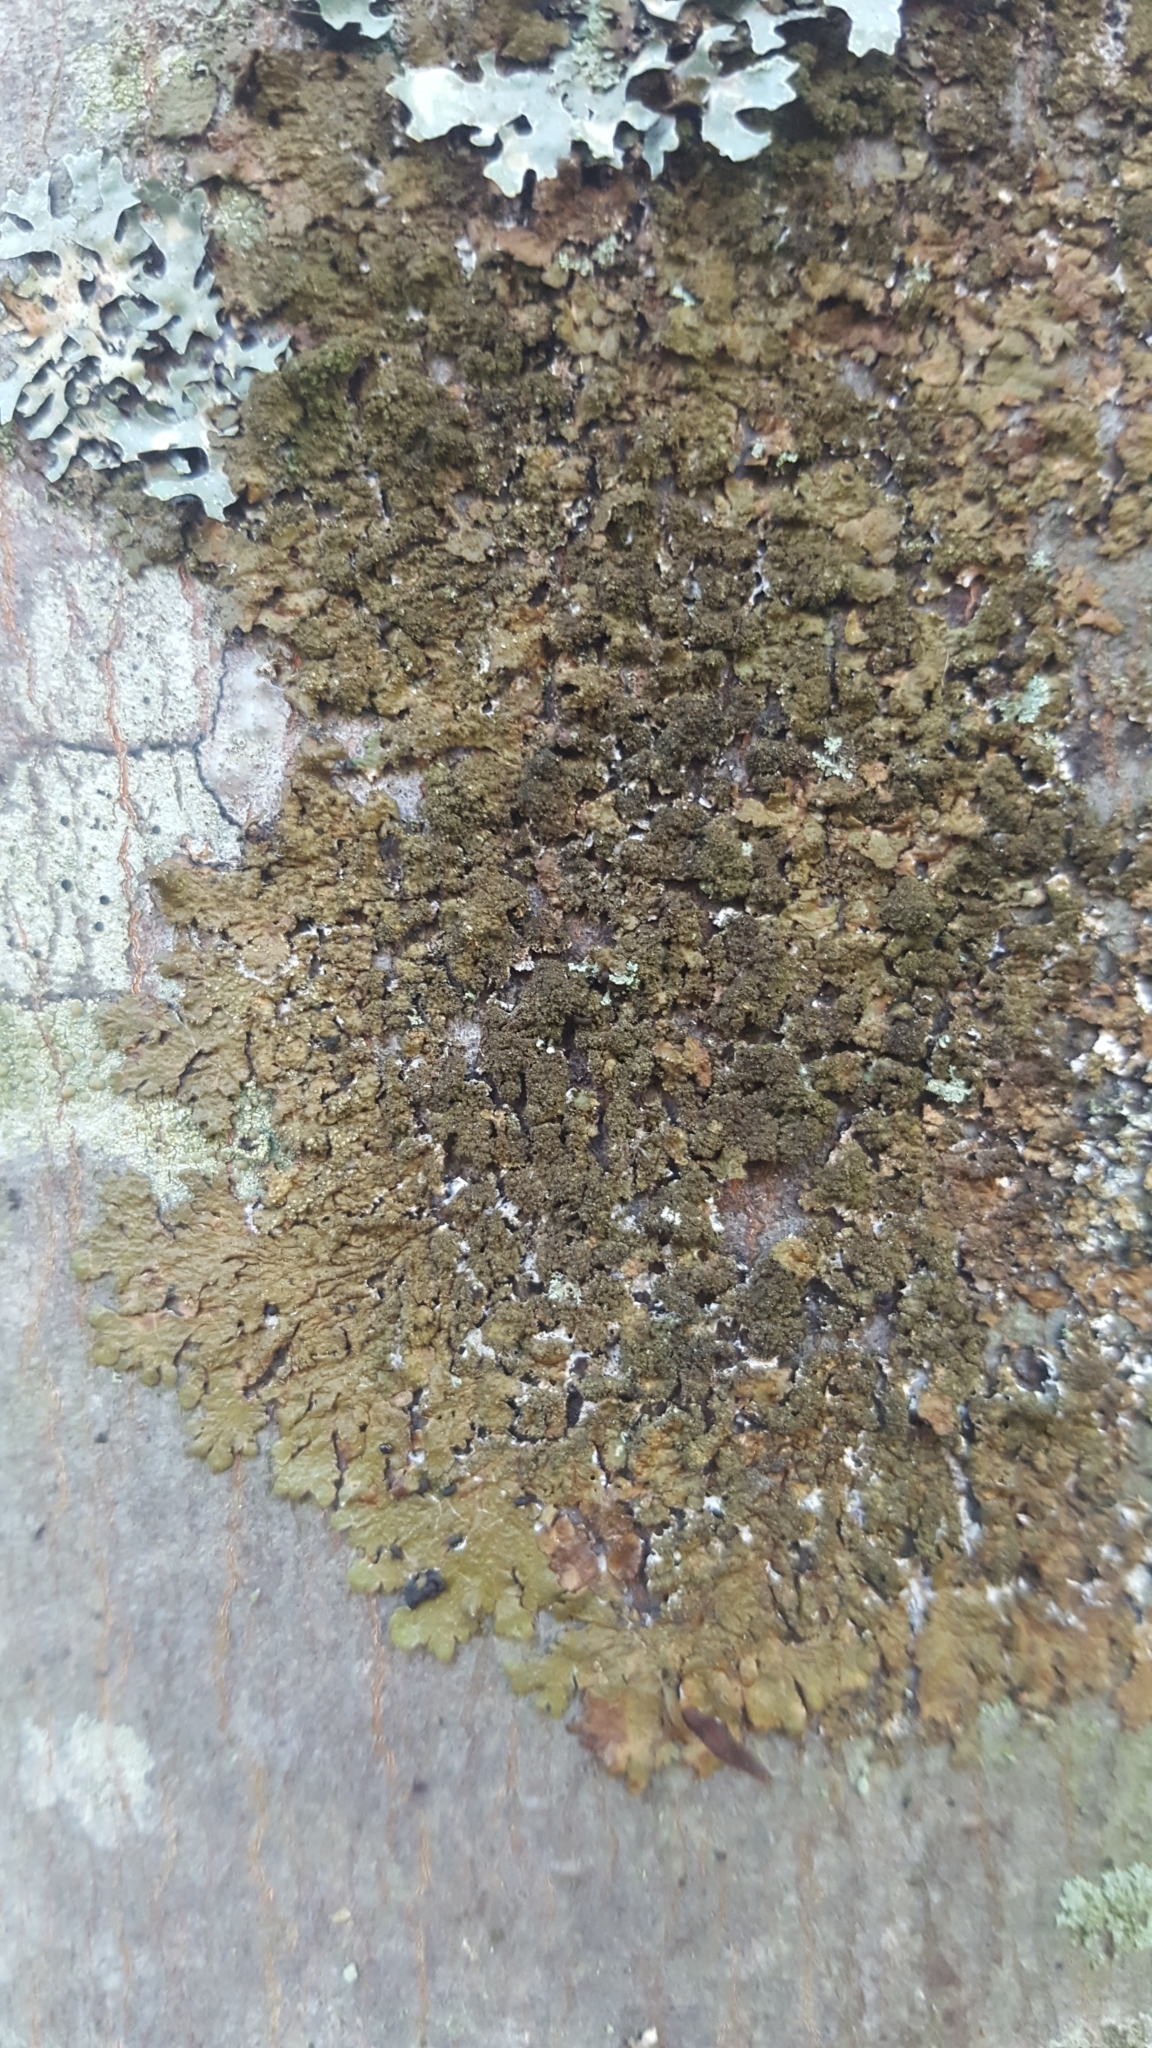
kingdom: Fungi
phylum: Ascomycota
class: Lecanoromycetes
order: Lecanorales
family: Parmeliaceae
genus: Melanelixia
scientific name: Melanelixia subaurifera
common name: Abraded camouflage lichen
